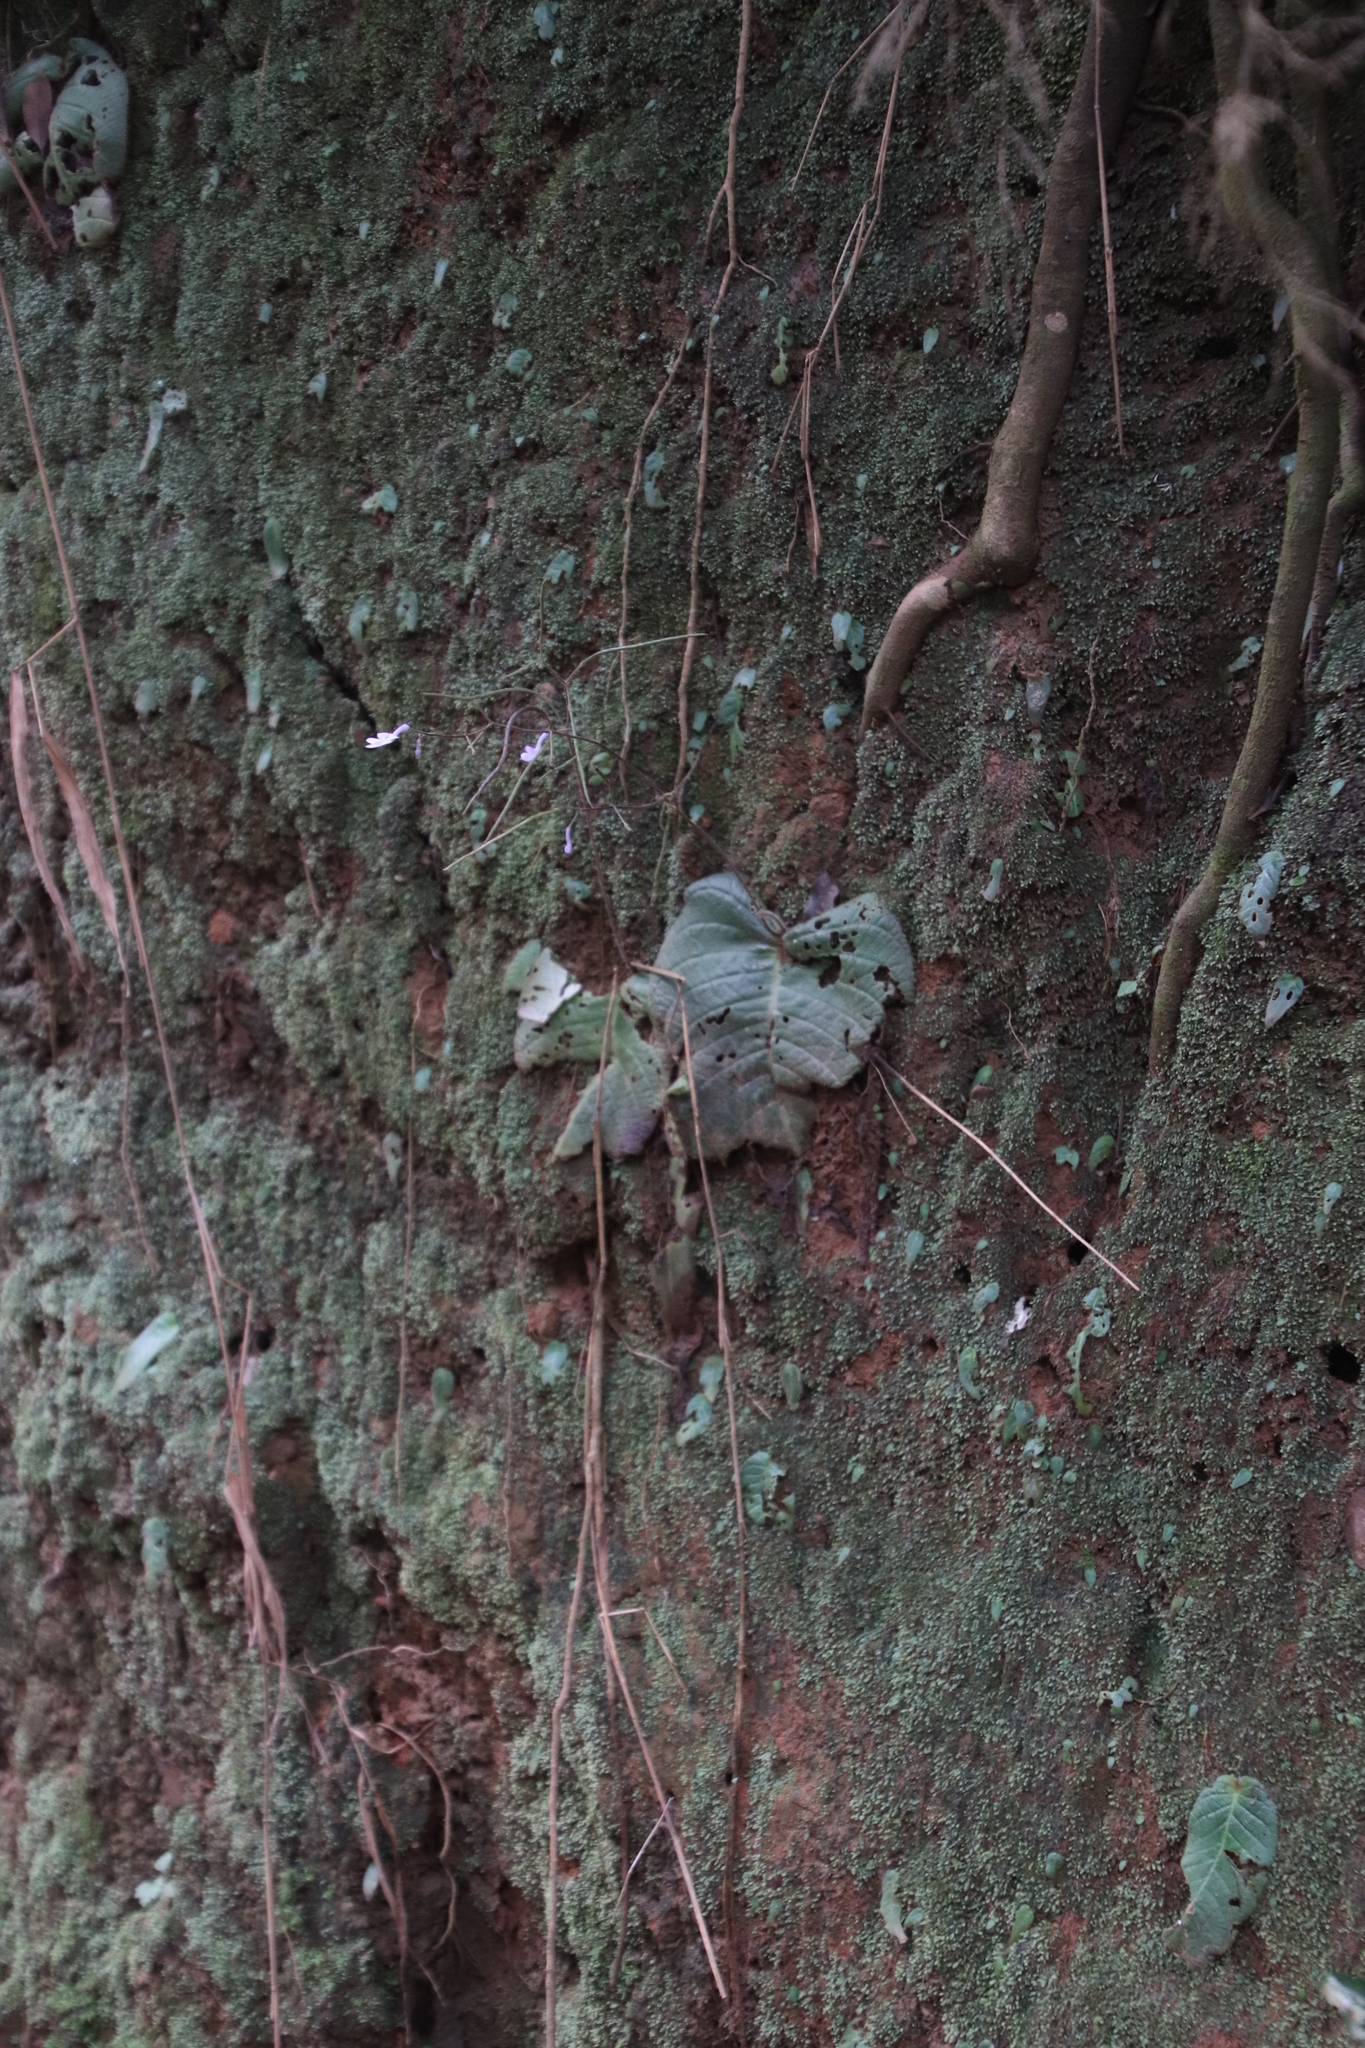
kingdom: Plantae
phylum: Tracheophyta
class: Magnoliopsida
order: Lamiales
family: Gesneriaceae
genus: Streptocarpus
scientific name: Streptocarpus confusus
